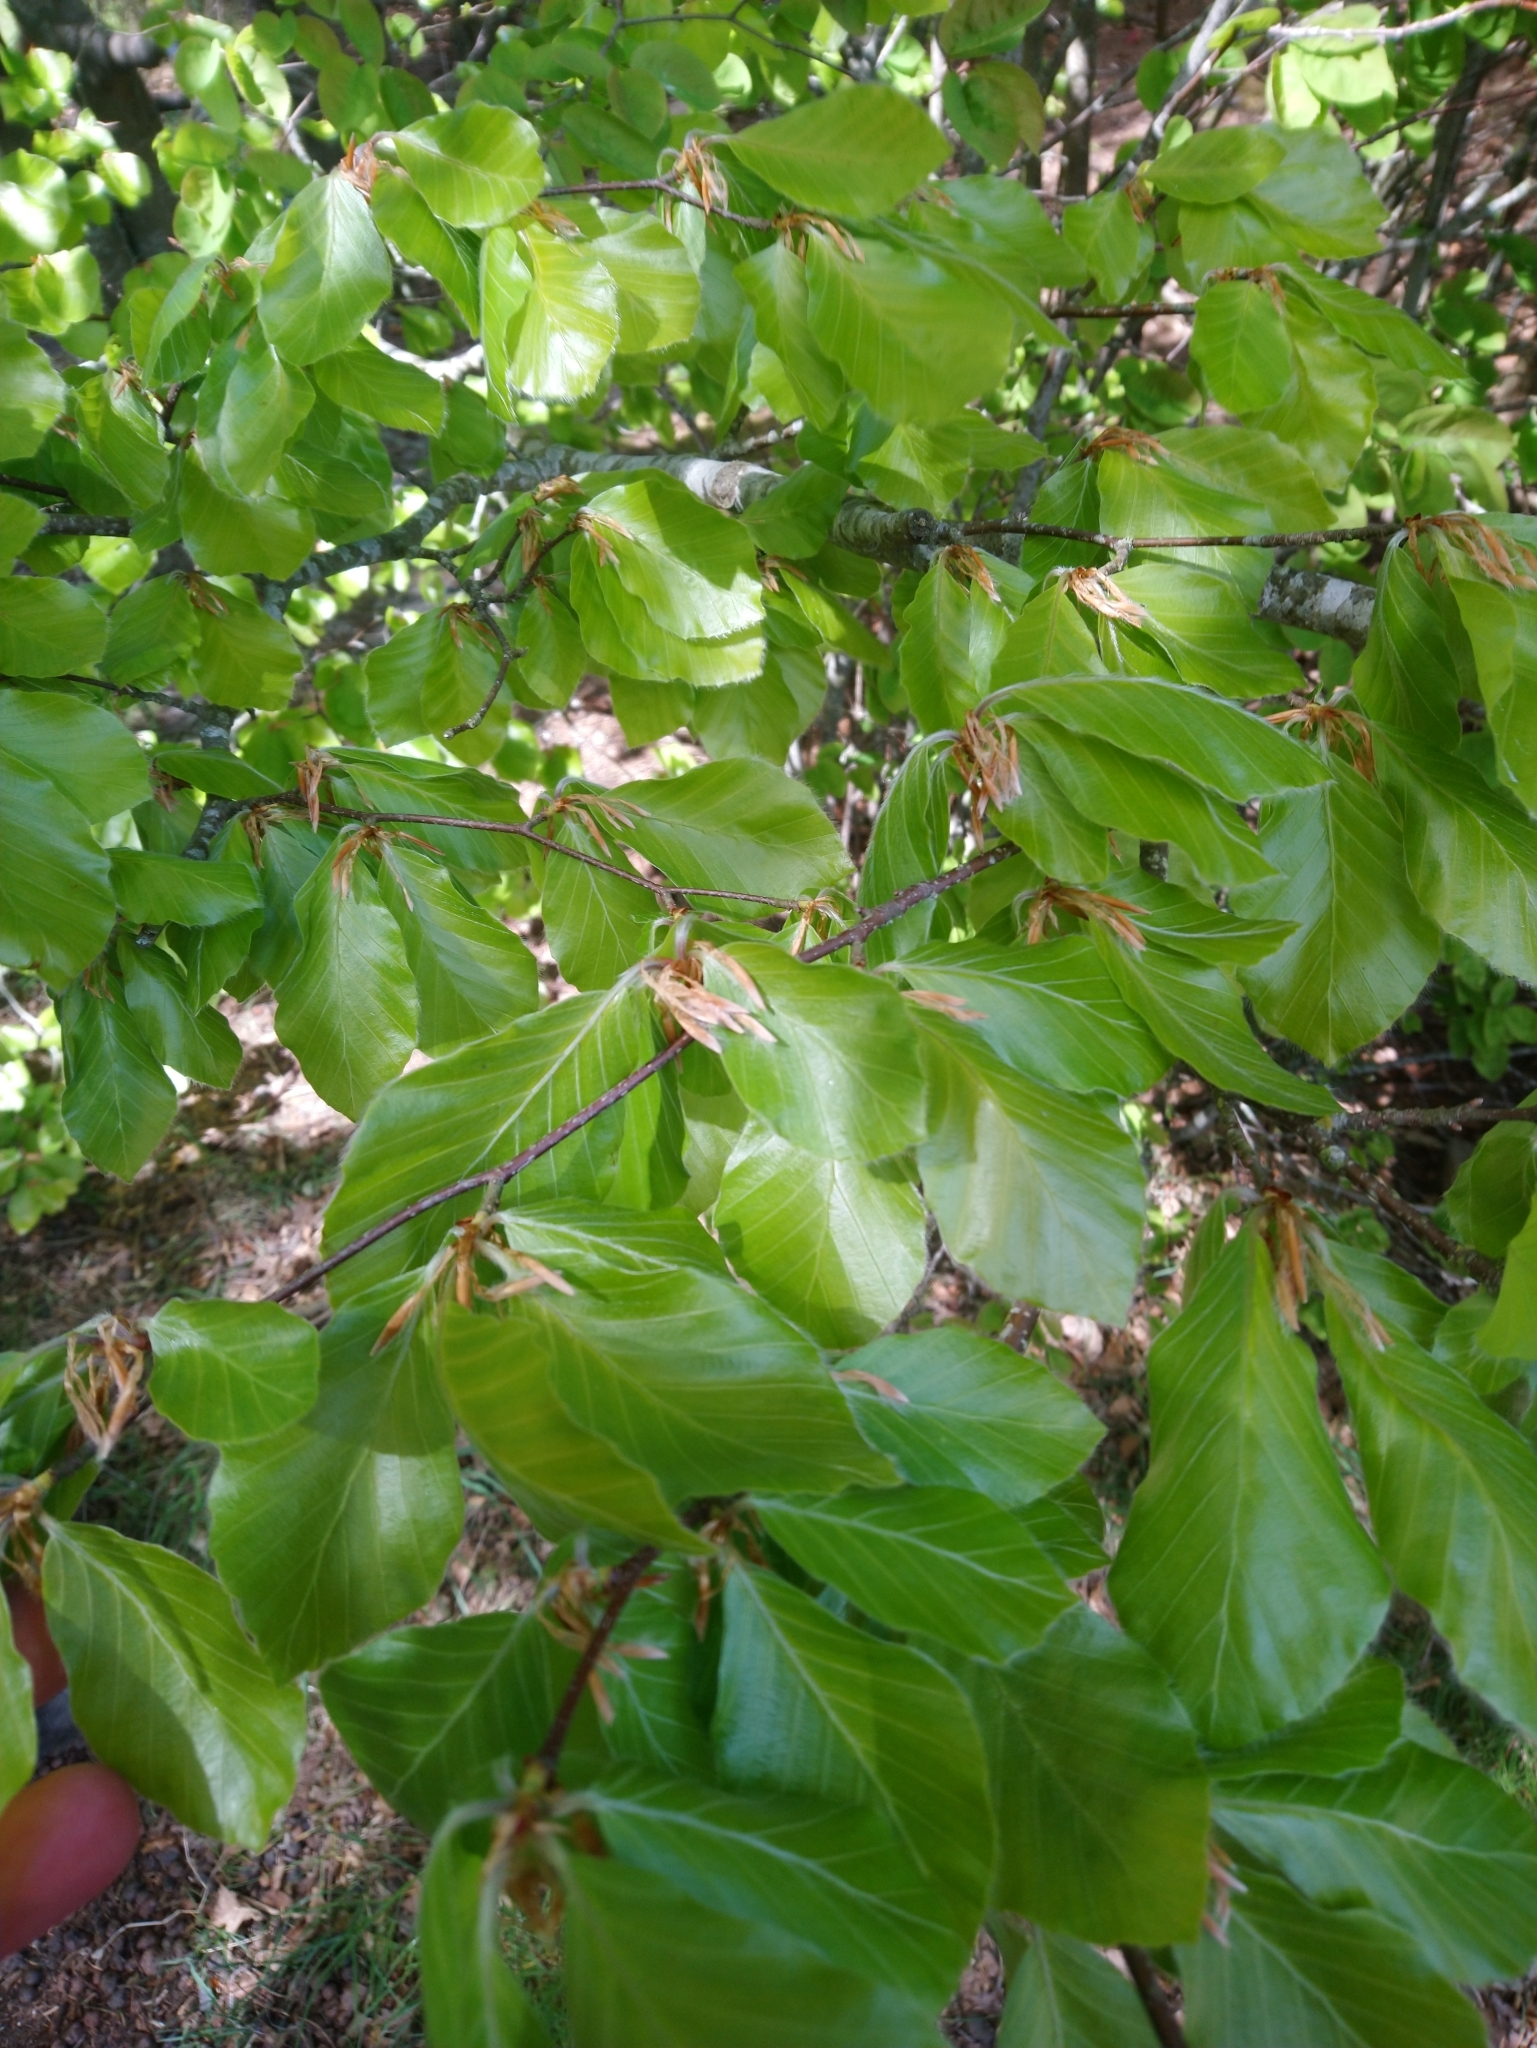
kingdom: Plantae
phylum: Tracheophyta
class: Magnoliopsida
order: Fagales
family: Fagaceae
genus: Fagus
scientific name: Fagus sylvatica
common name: Beech
